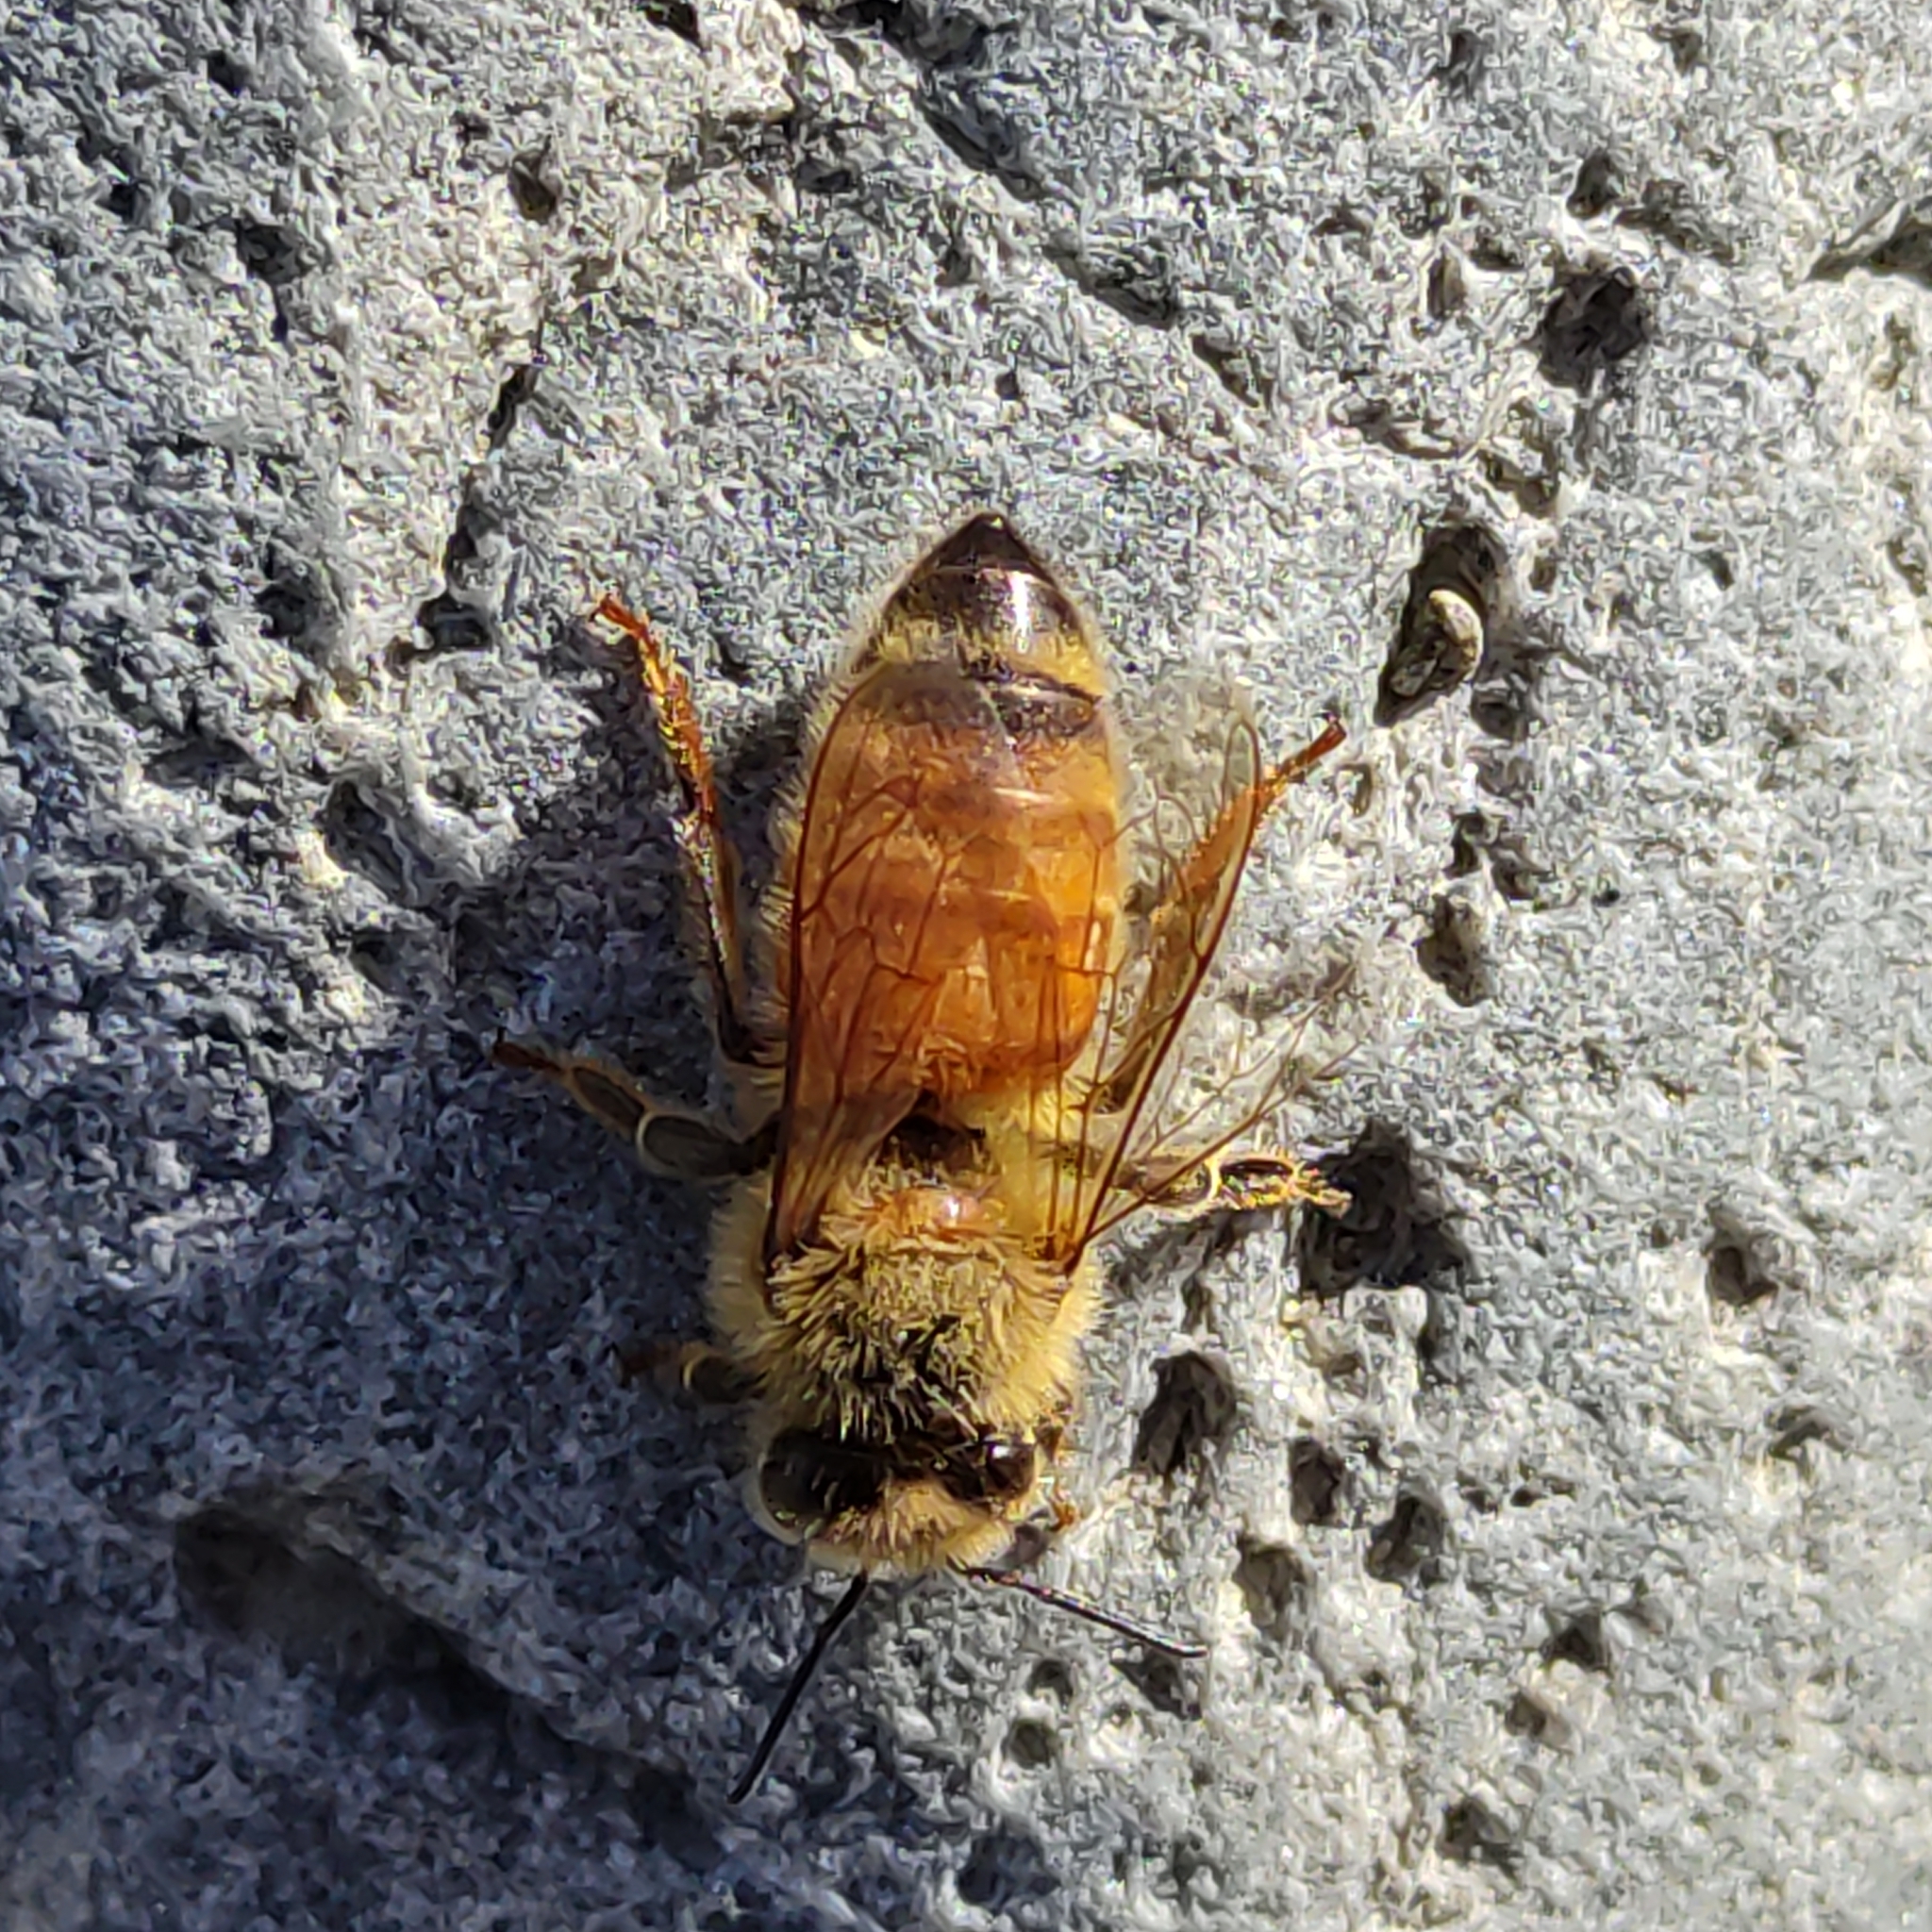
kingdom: Animalia
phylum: Arthropoda
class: Insecta
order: Hymenoptera
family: Apidae
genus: Apis
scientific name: Apis mellifera
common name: Honey bee
